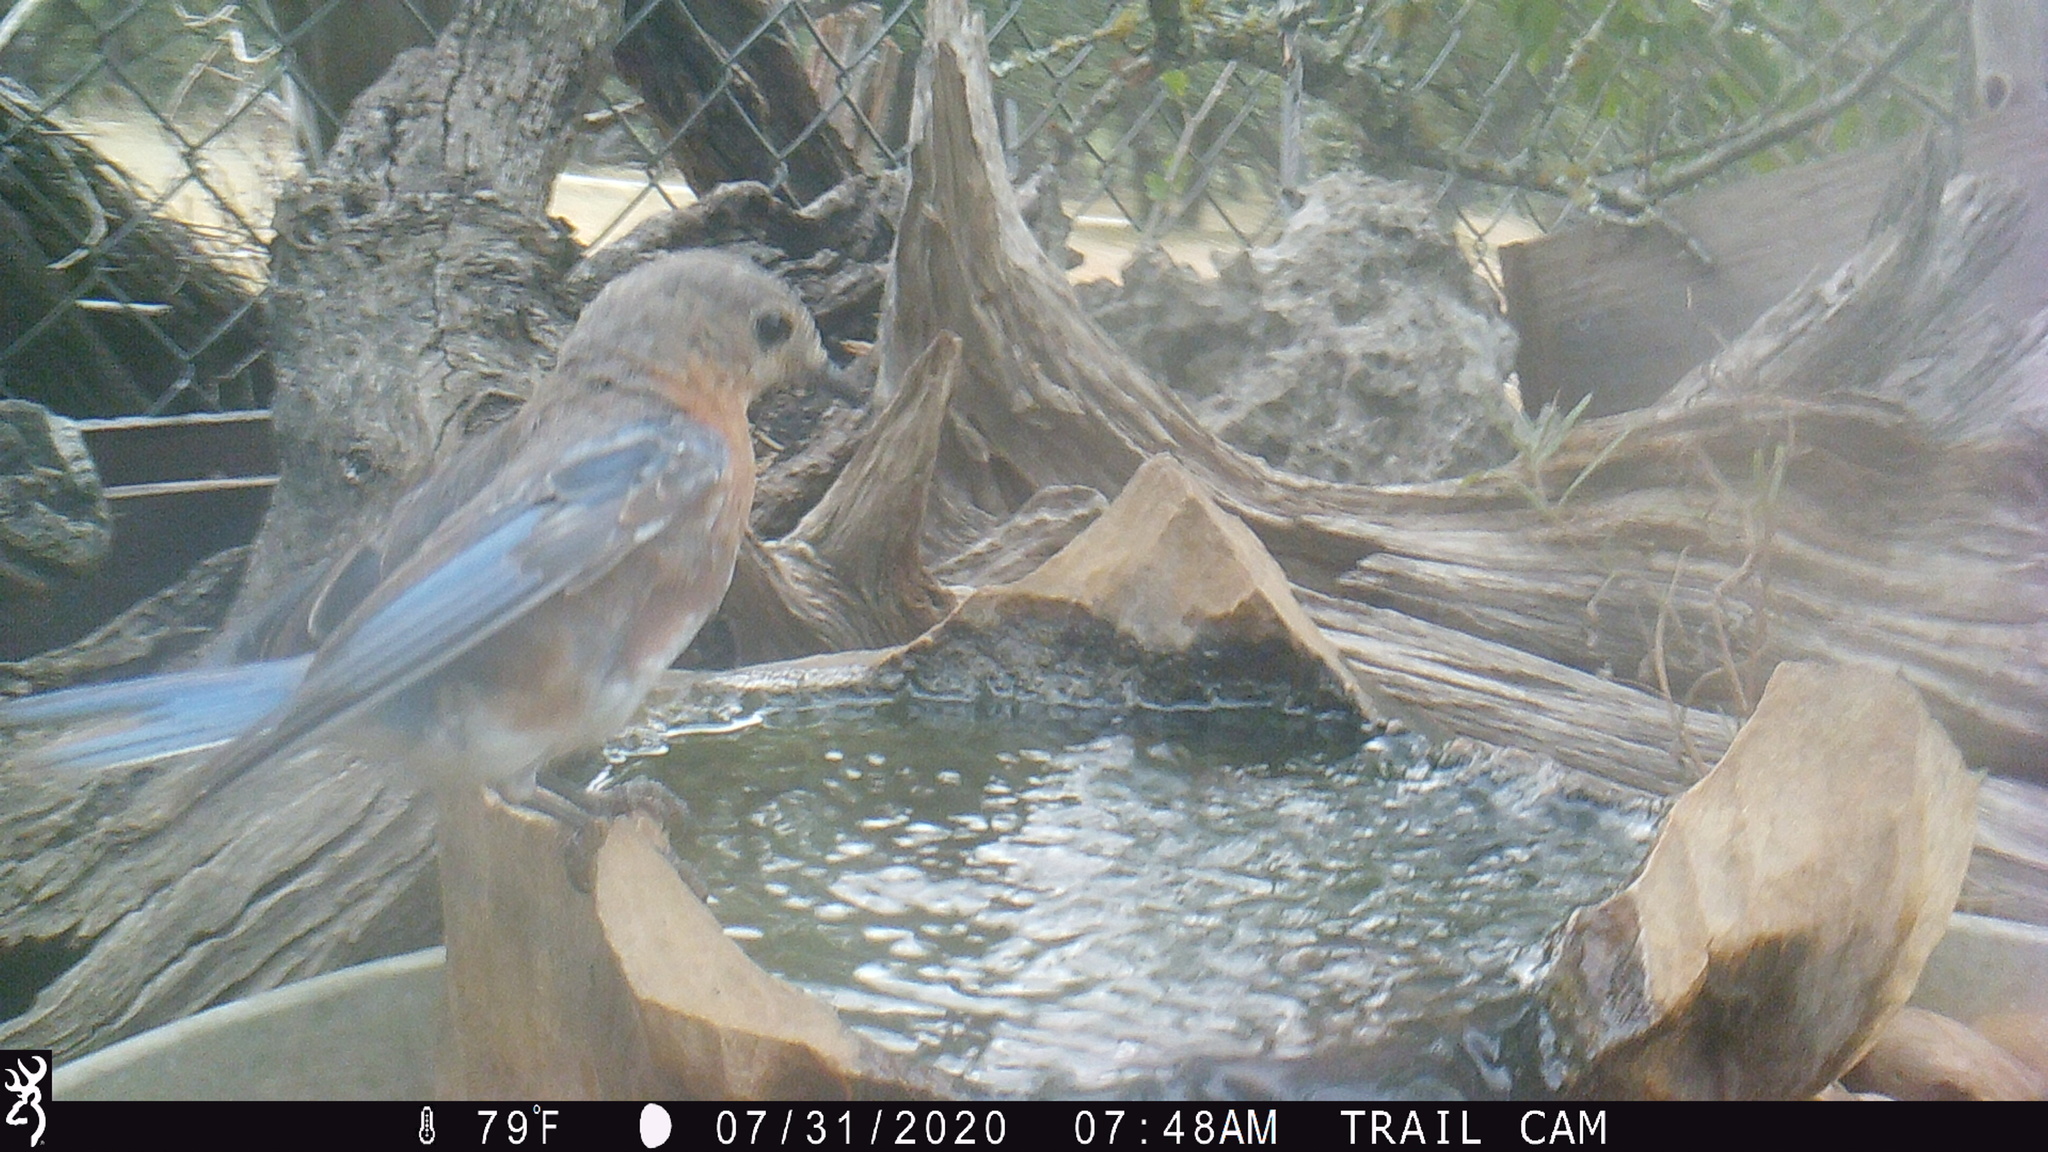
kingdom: Animalia
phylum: Chordata
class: Aves
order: Passeriformes
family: Turdidae
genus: Sialia
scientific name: Sialia sialis
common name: Eastern bluebird
